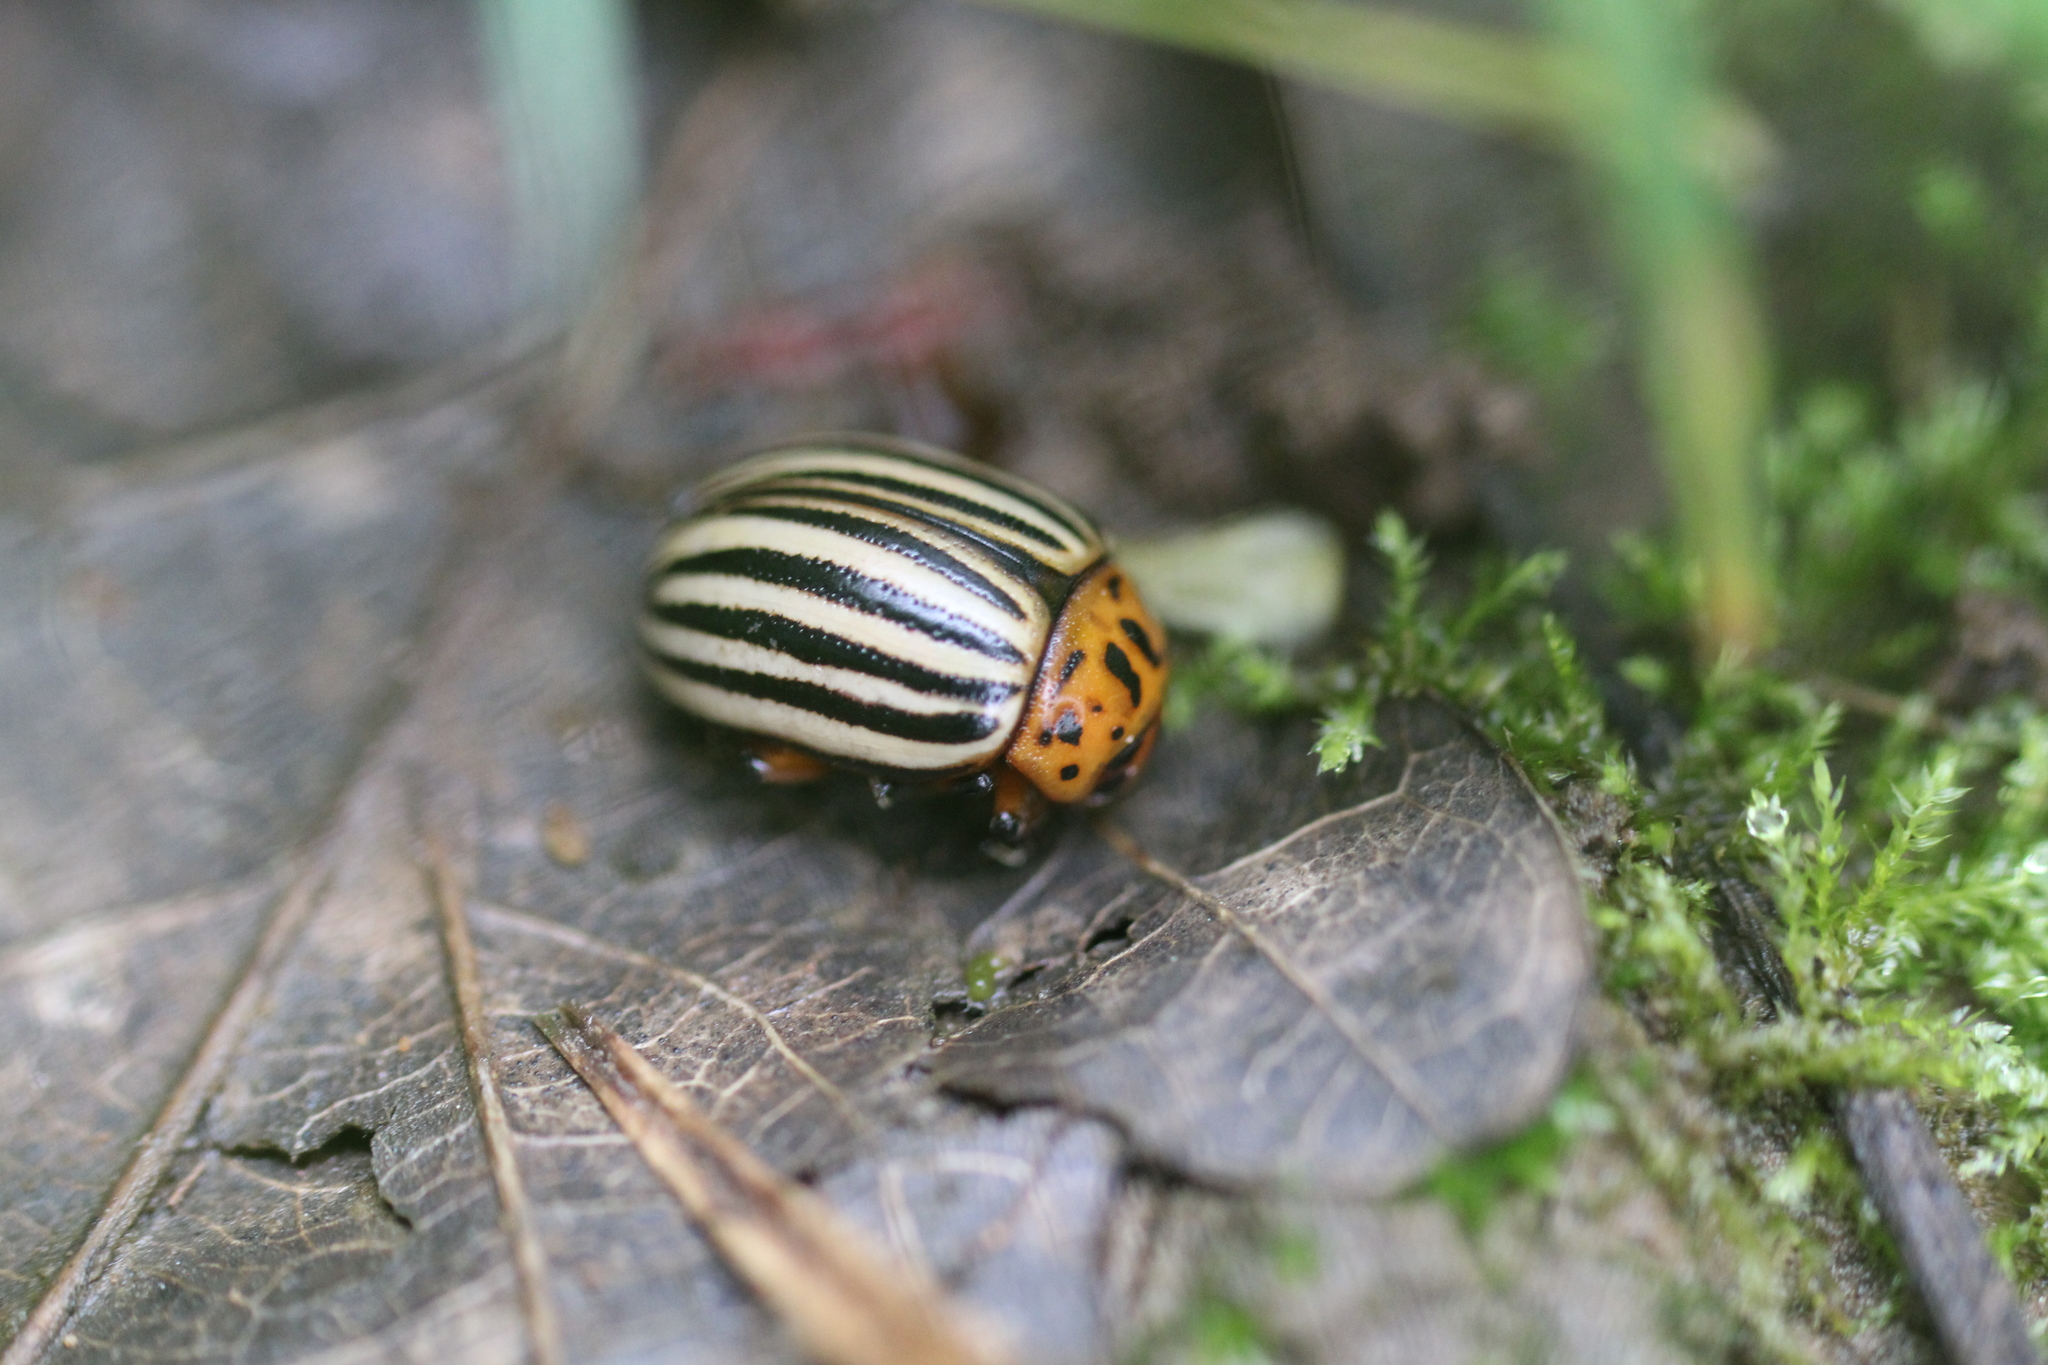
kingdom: Animalia
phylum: Arthropoda
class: Insecta
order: Coleoptera
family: Chrysomelidae
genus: Leptinotarsa
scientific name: Leptinotarsa decemlineata
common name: Colorado potato beetle
